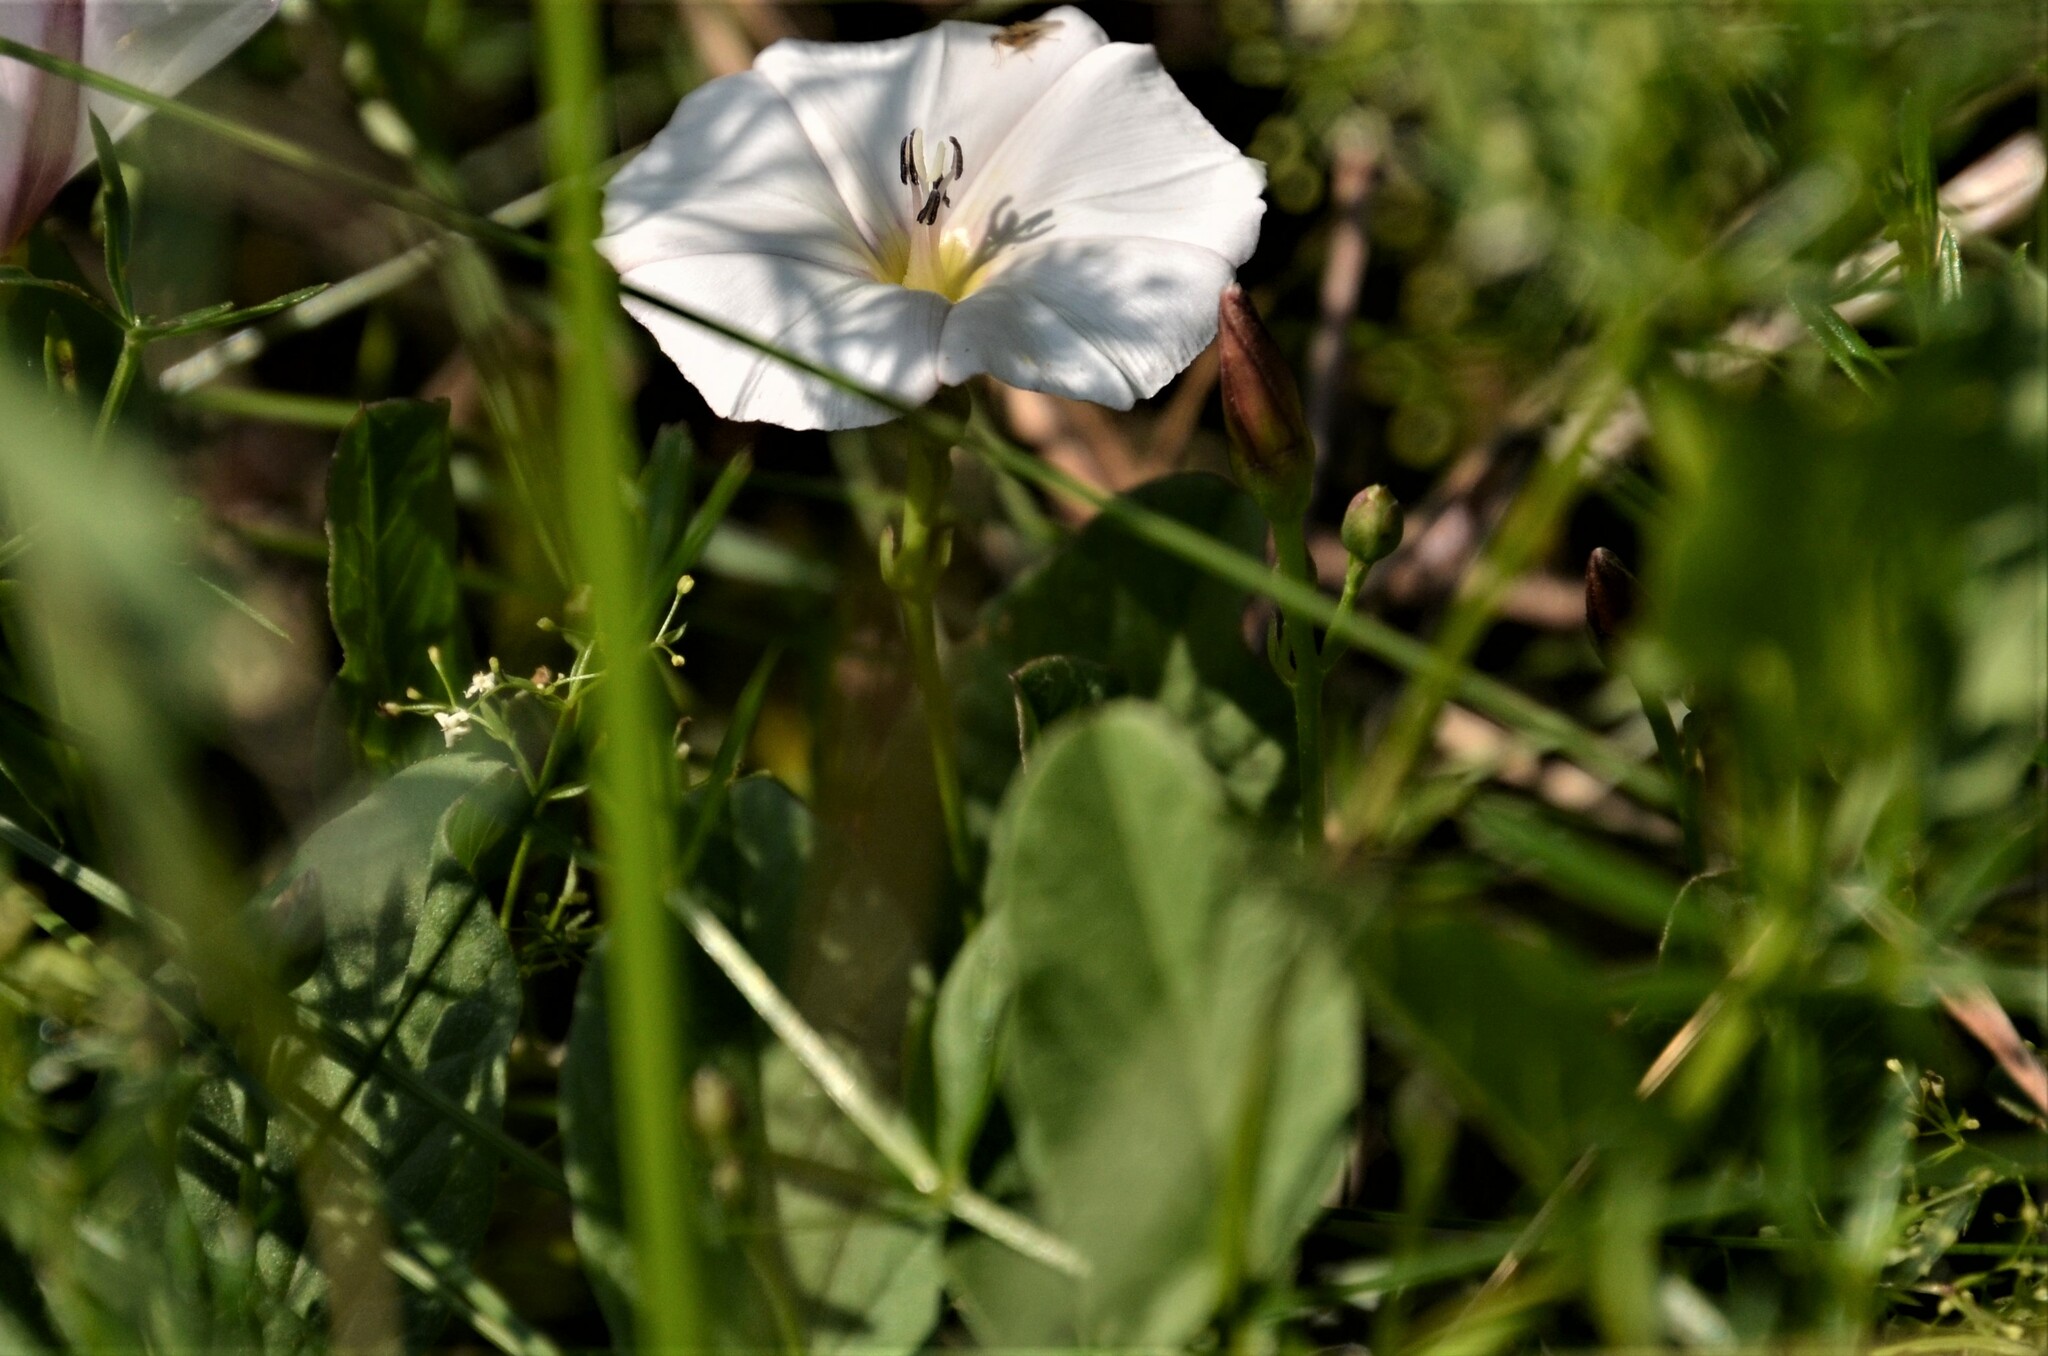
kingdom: Plantae
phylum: Tracheophyta
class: Magnoliopsida
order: Solanales
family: Convolvulaceae
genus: Convolvulus
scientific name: Convolvulus arvensis
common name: Field bindweed
